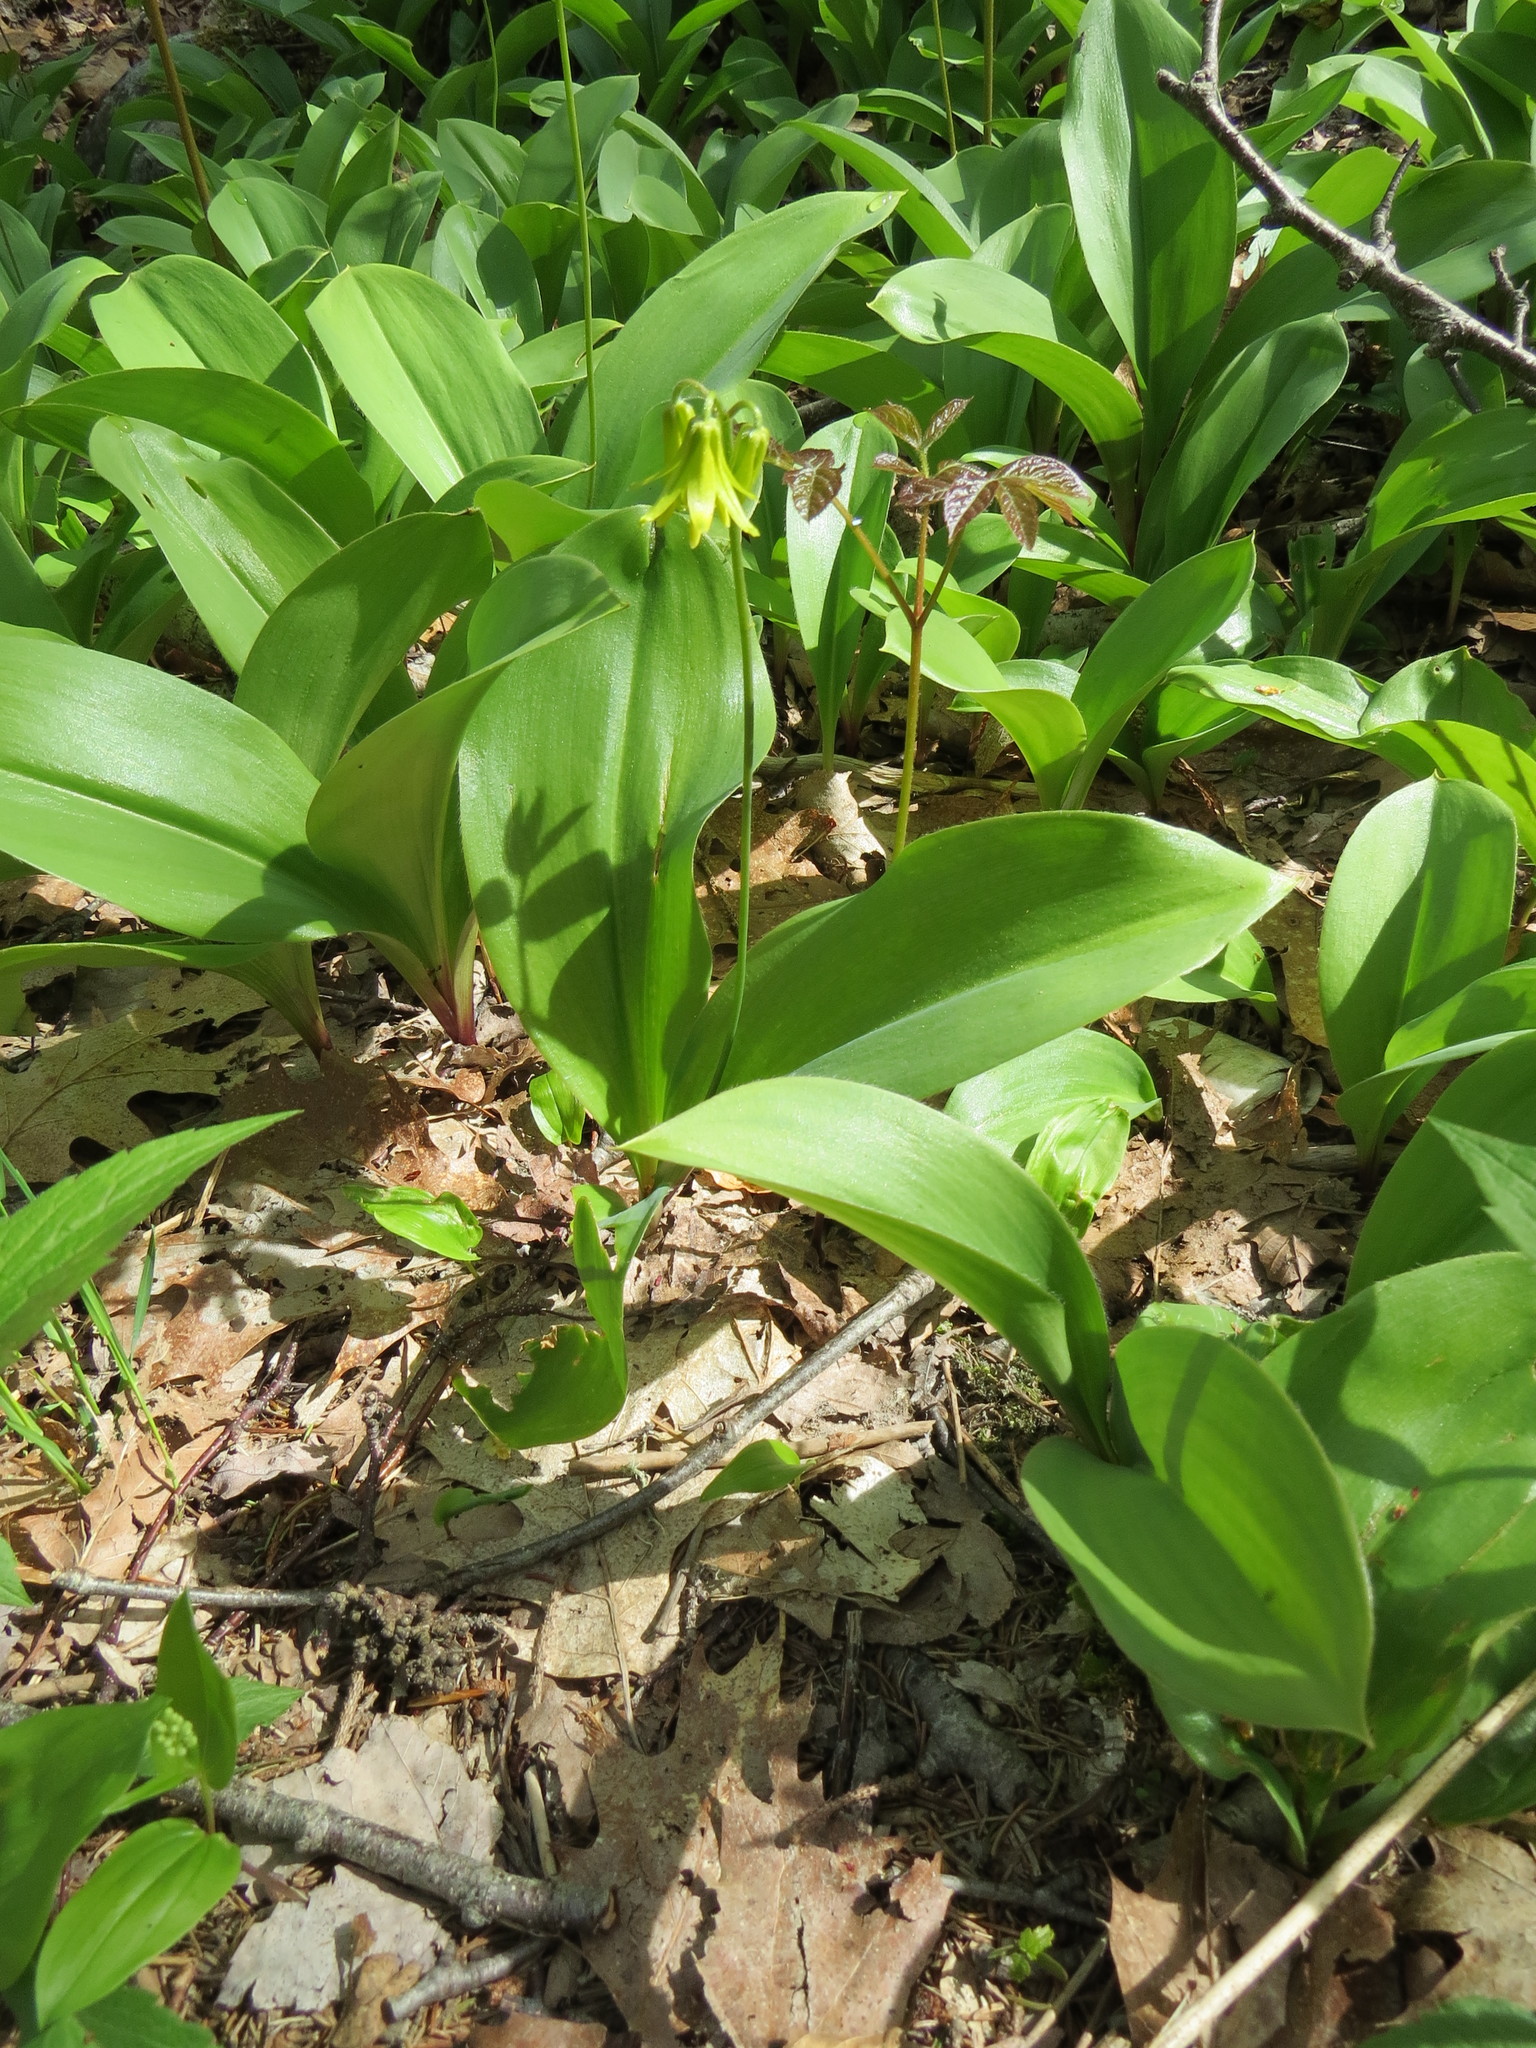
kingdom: Plantae
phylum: Tracheophyta
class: Liliopsida
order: Liliales
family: Liliaceae
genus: Clintonia
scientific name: Clintonia borealis
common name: Yellow clintonia
